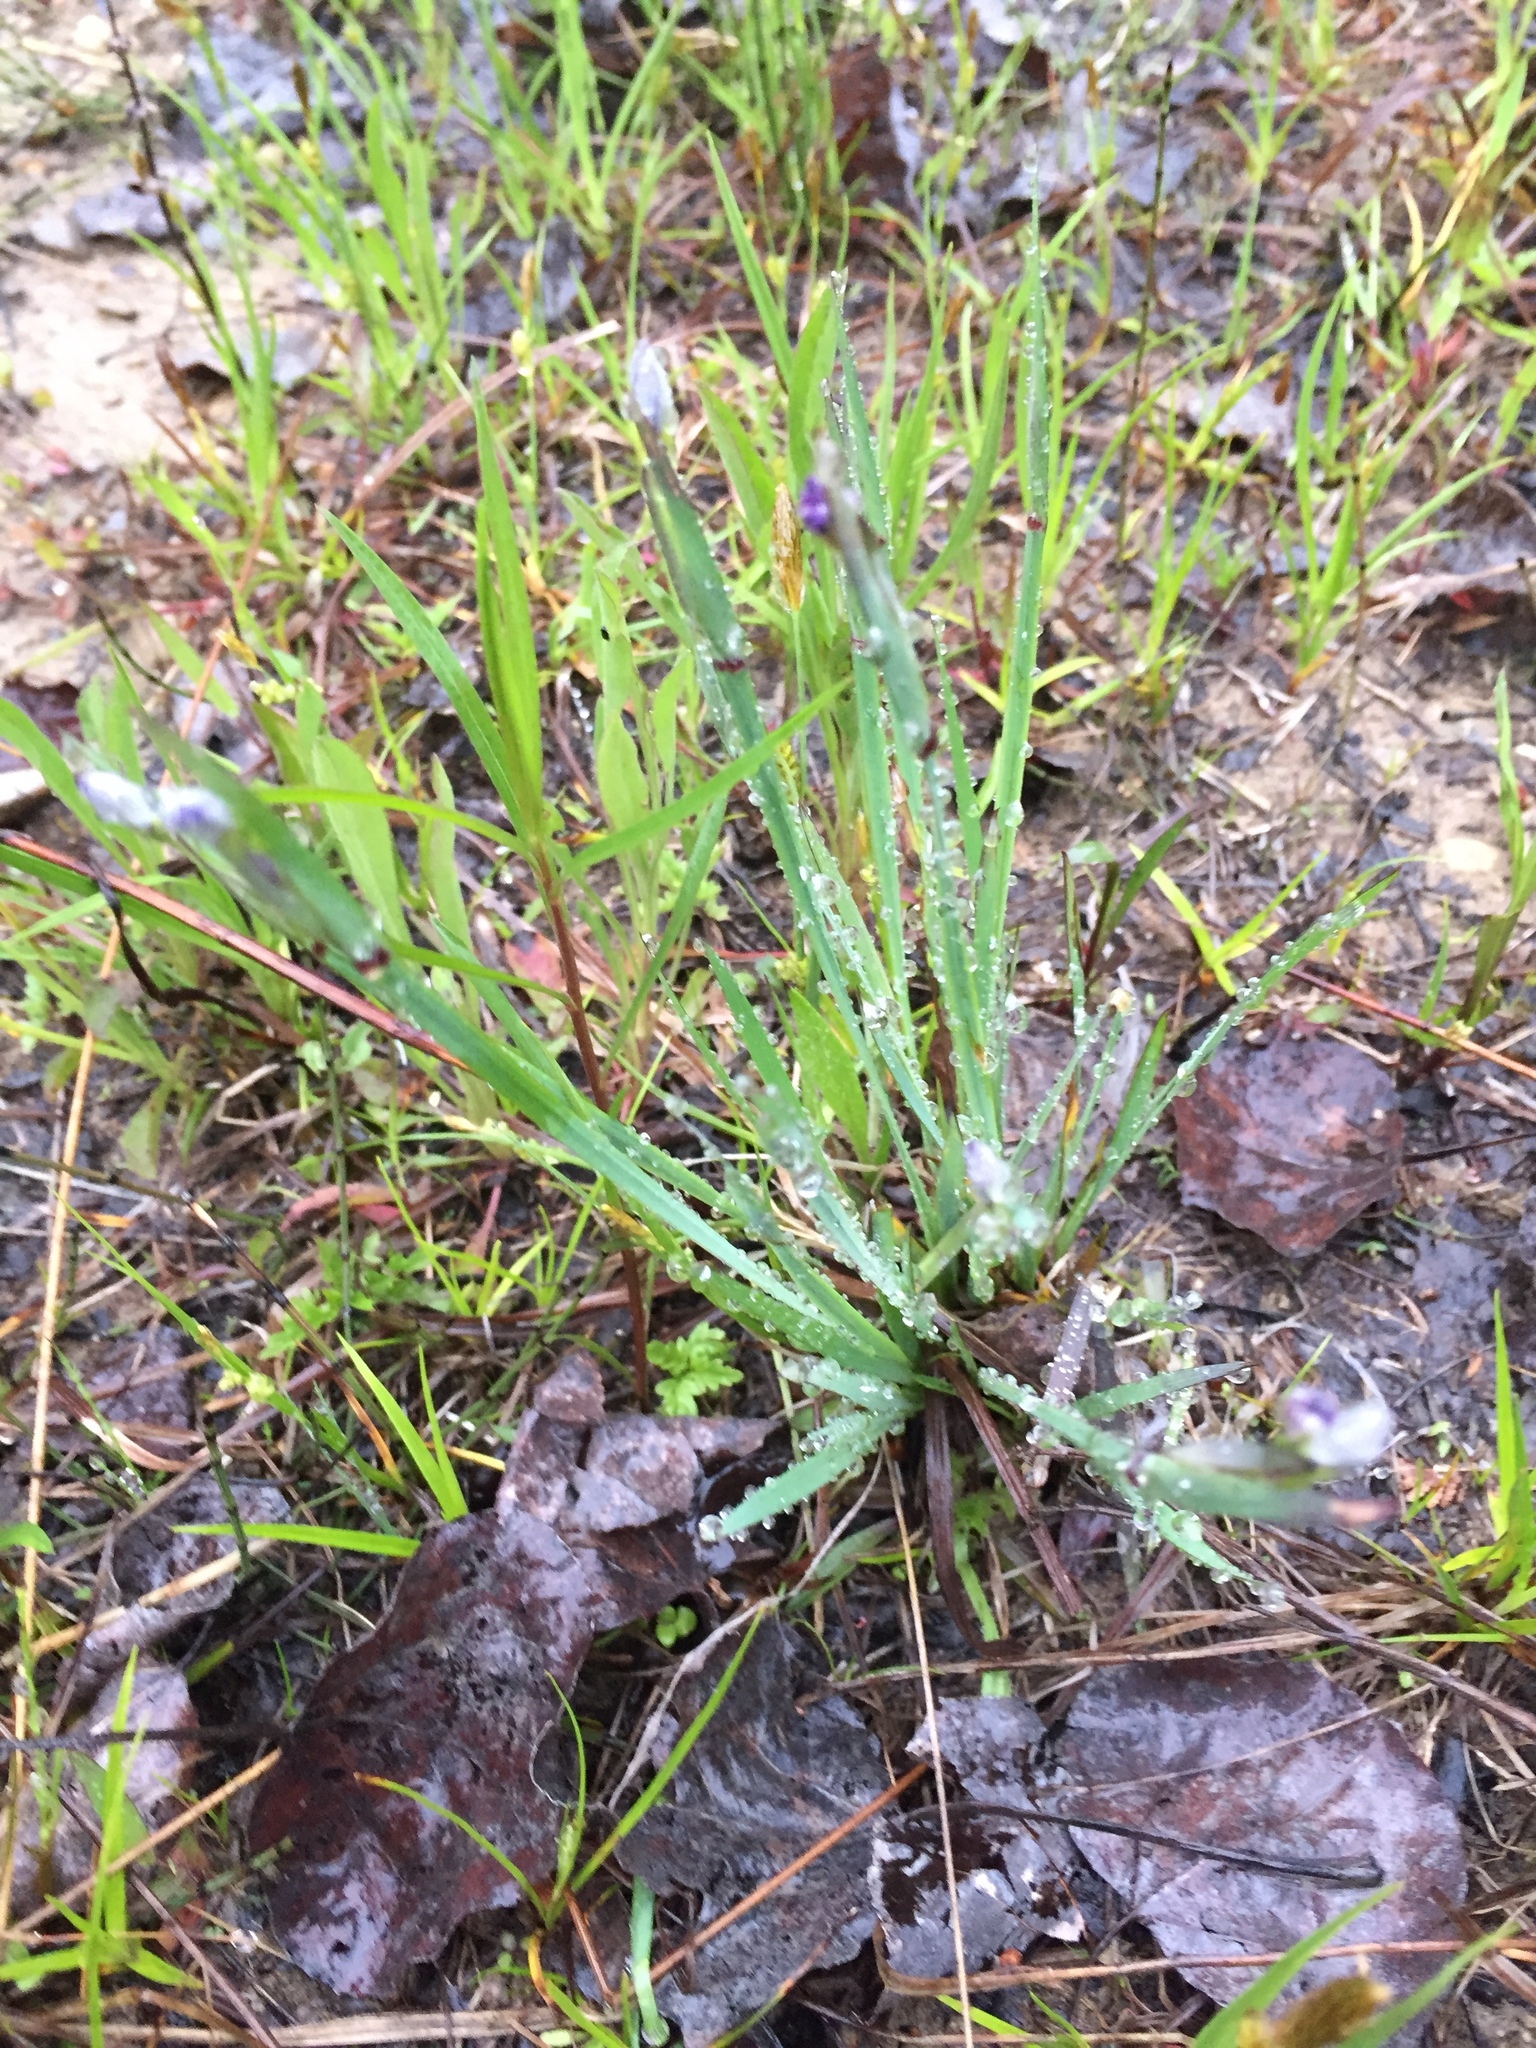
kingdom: Plantae
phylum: Tracheophyta
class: Liliopsida
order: Asparagales
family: Iridaceae
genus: Sisyrinchium
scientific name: Sisyrinchium montanum
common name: American blue-eyed-grass
